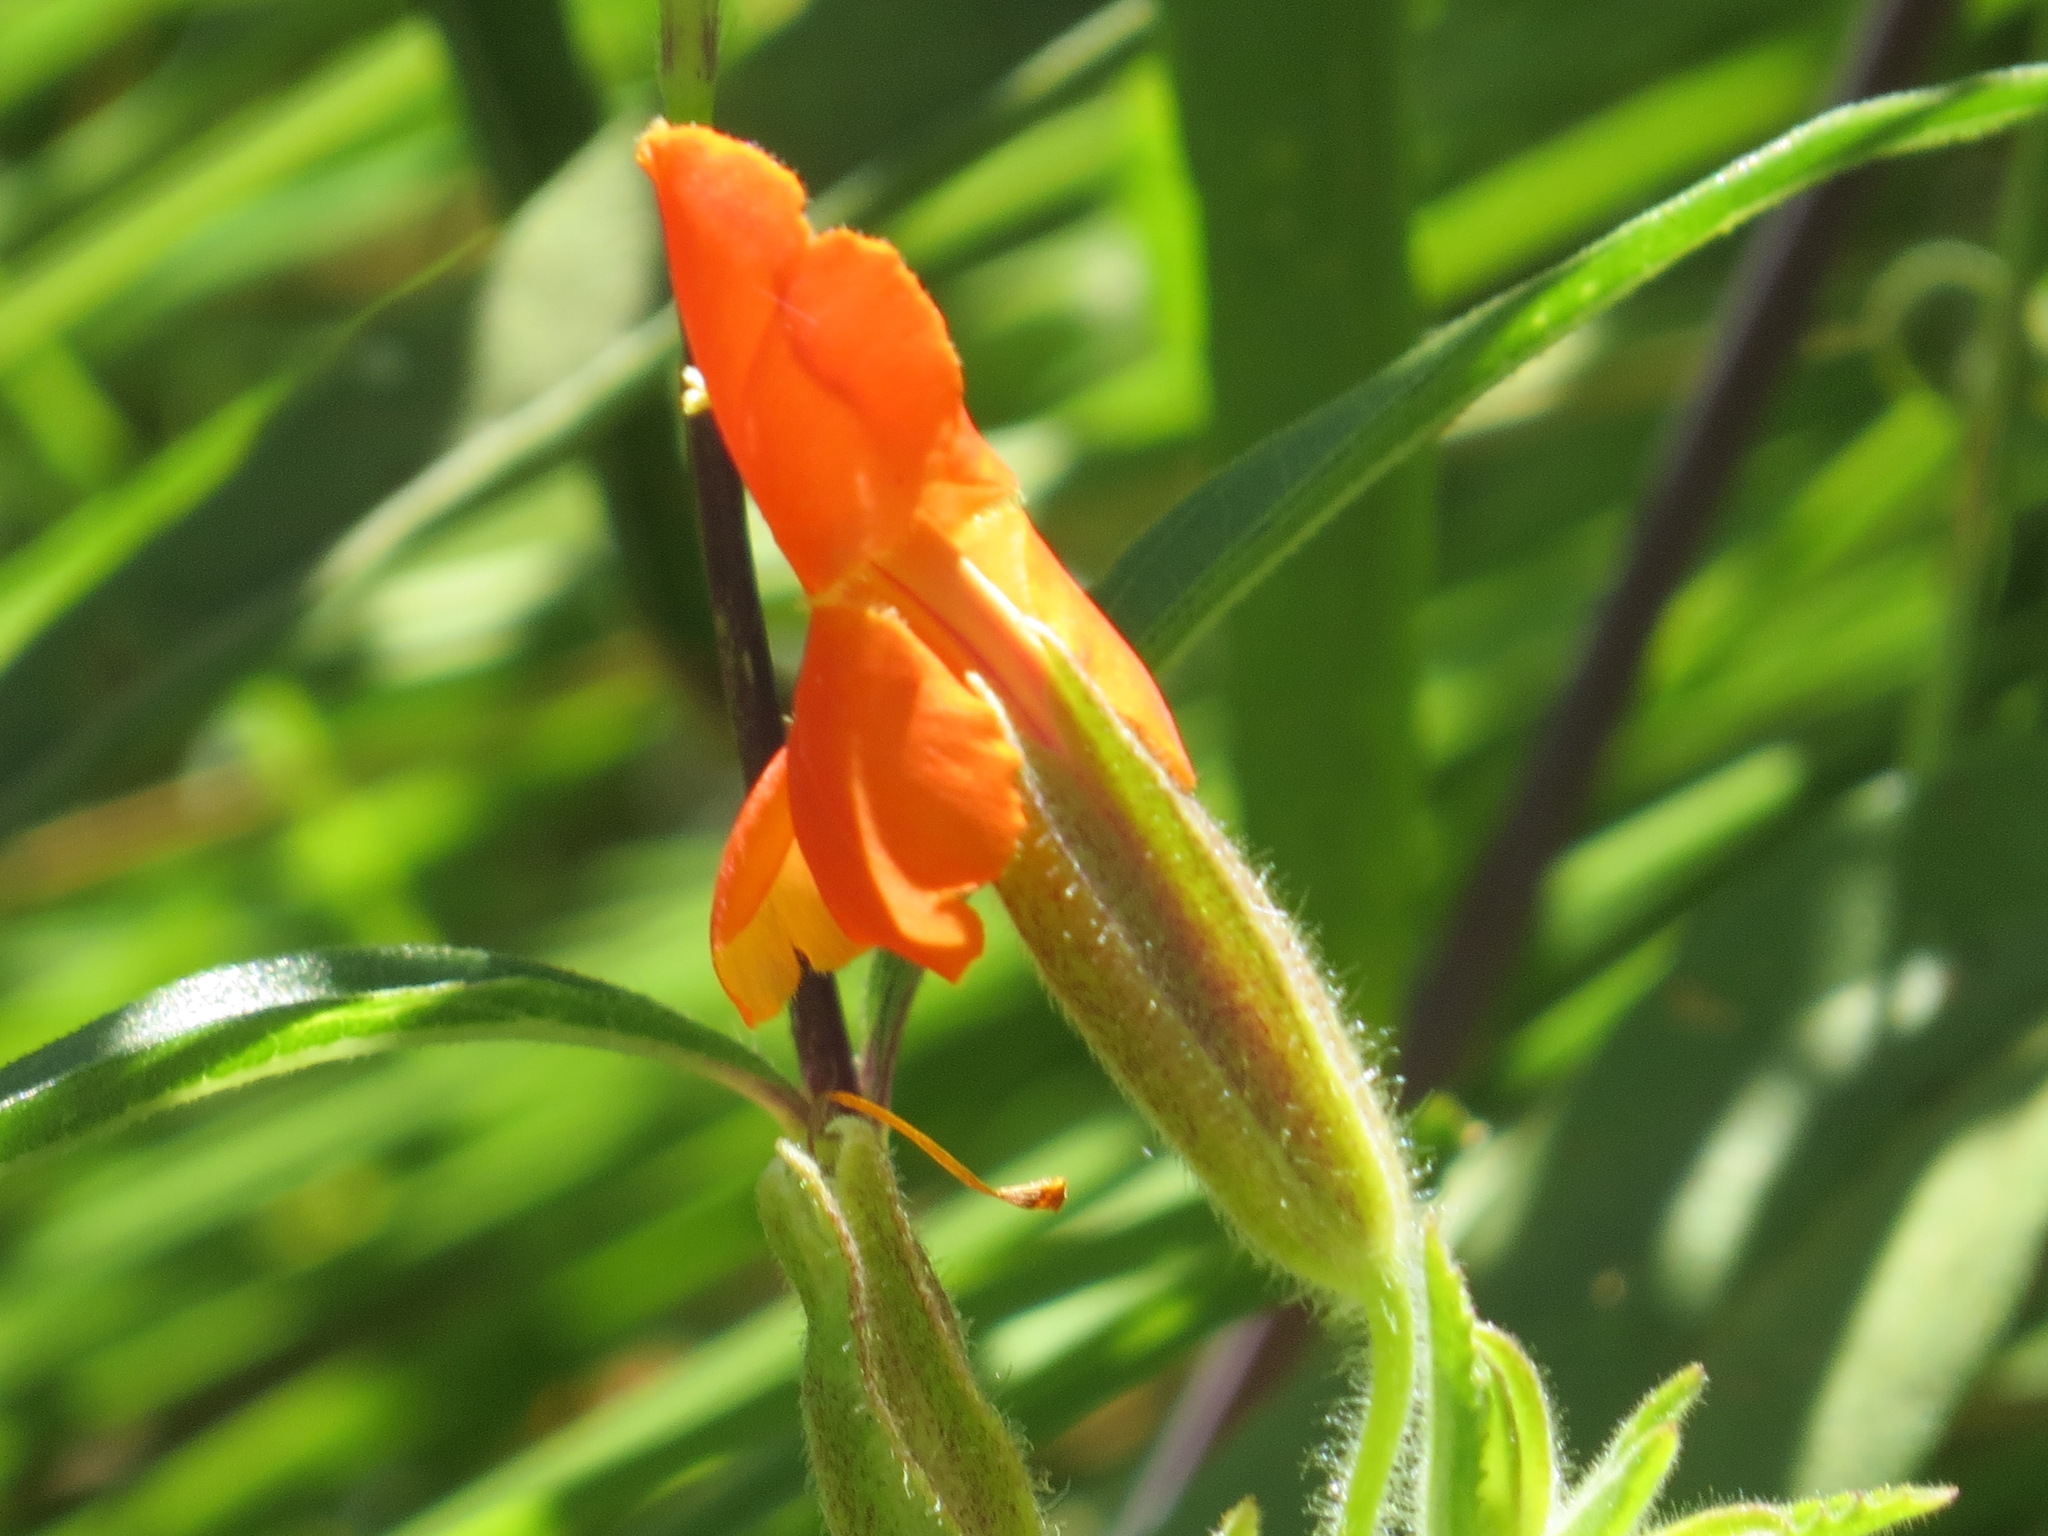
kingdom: Plantae
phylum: Tracheophyta
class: Magnoliopsida
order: Lamiales
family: Phrymaceae
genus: Erythranthe
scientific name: Erythranthe cardinalis
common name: Scarlet monkey-flower
